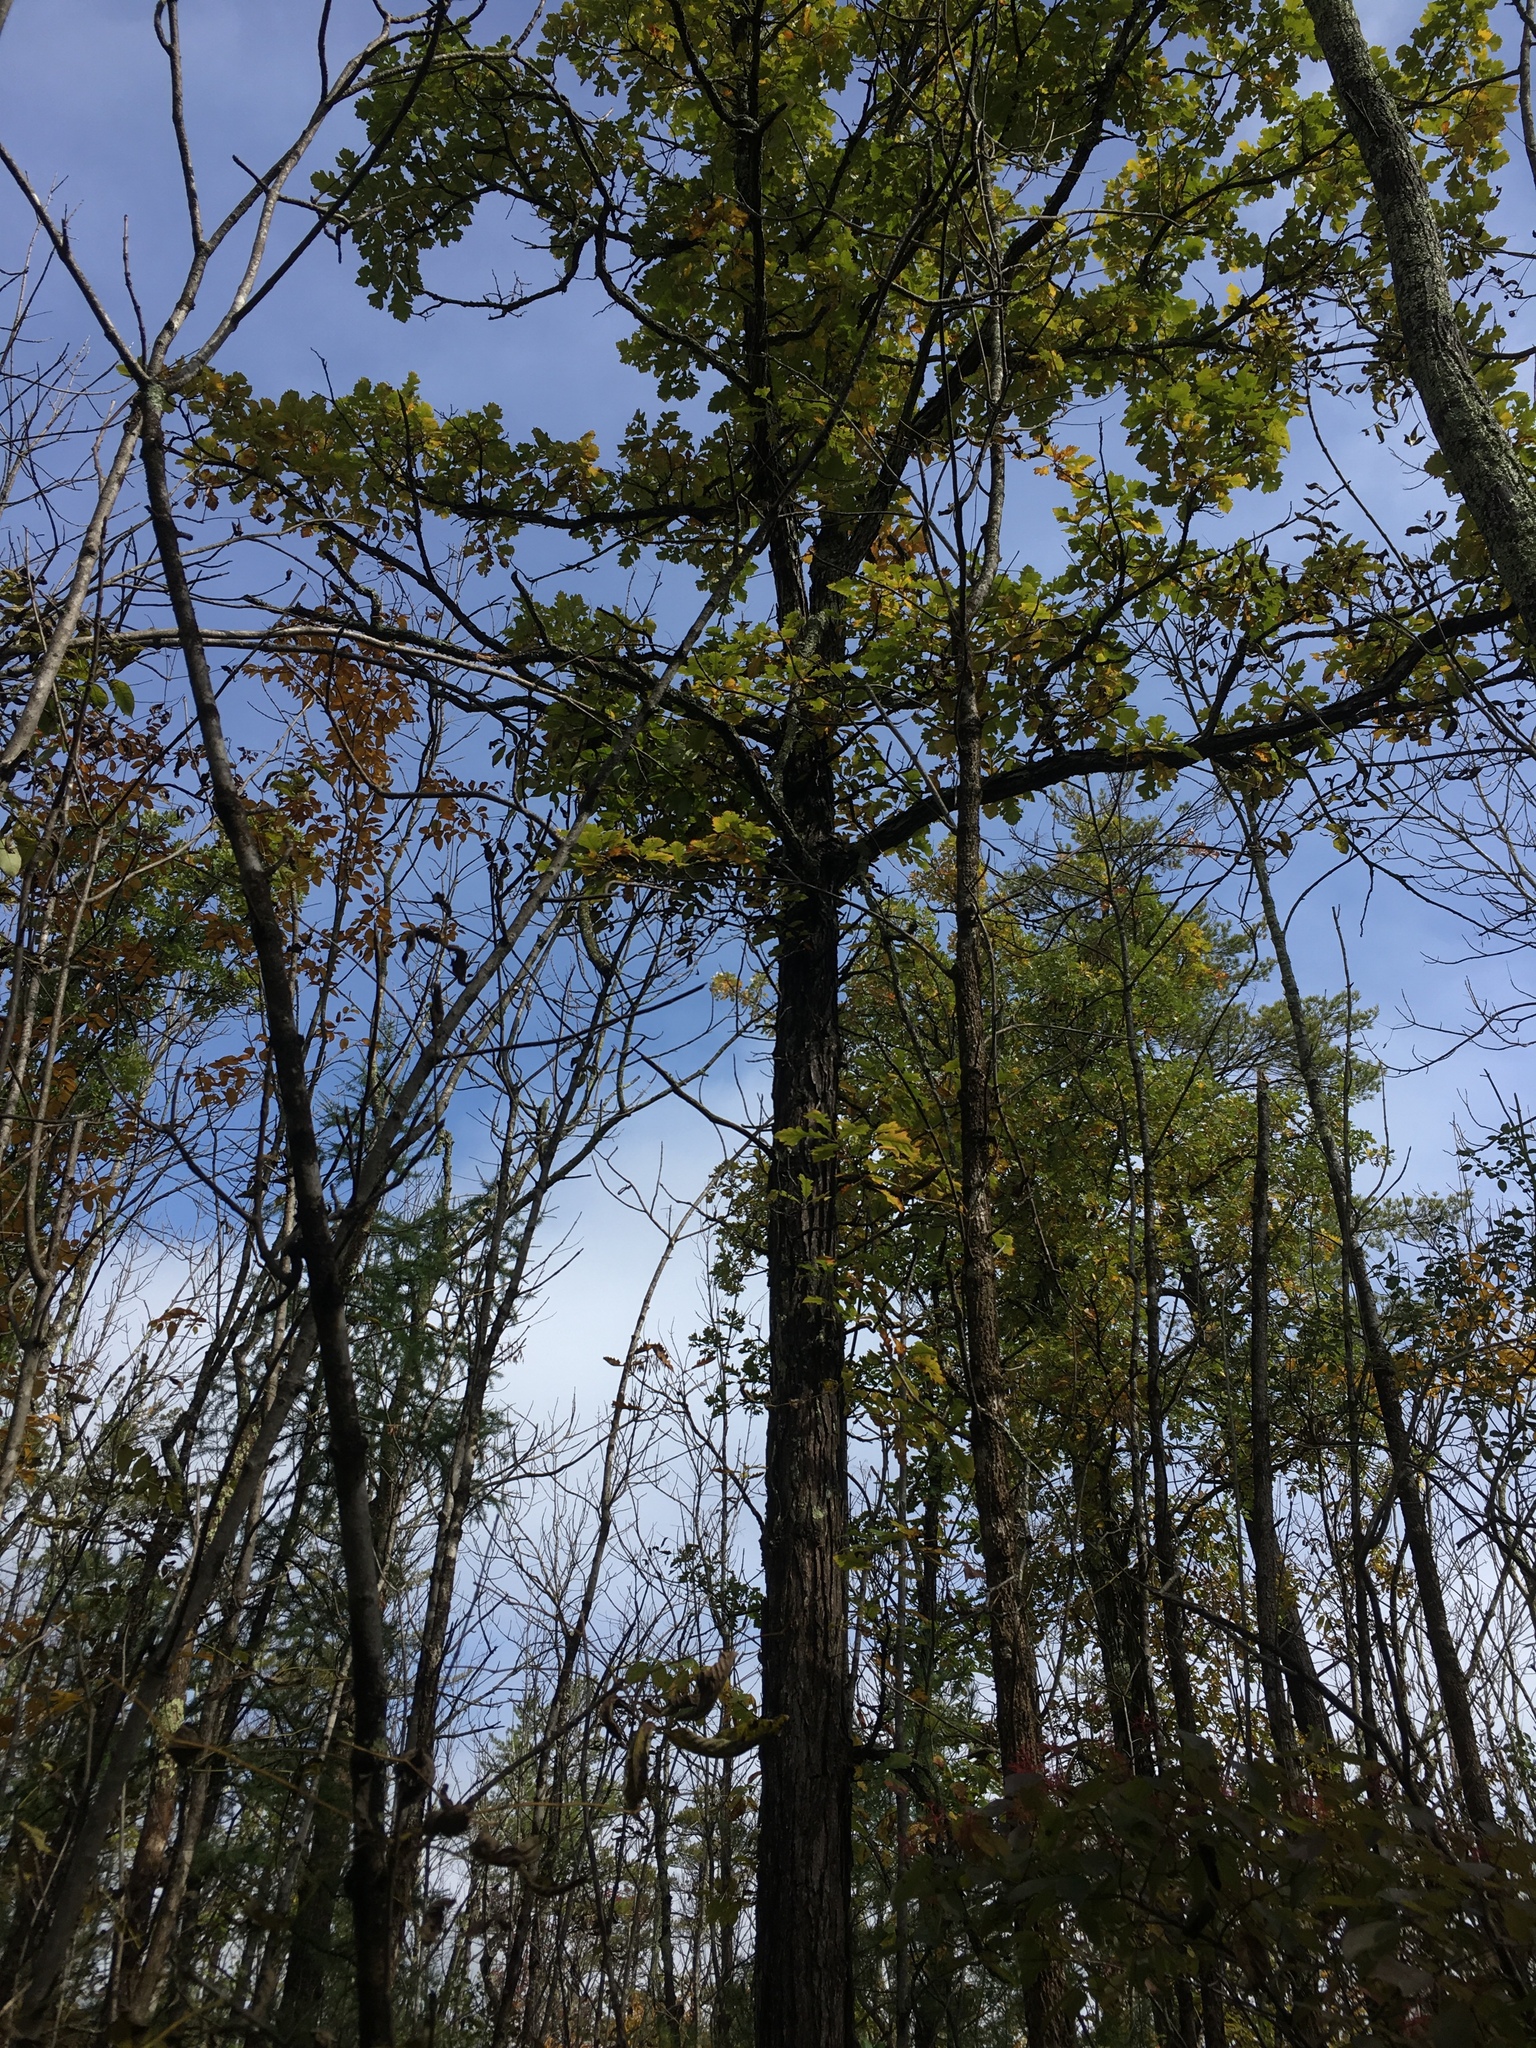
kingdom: Plantae
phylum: Tracheophyta
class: Magnoliopsida
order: Fagales
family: Fagaceae
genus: Quercus
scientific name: Quercus macrocarpa
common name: Bur oak
